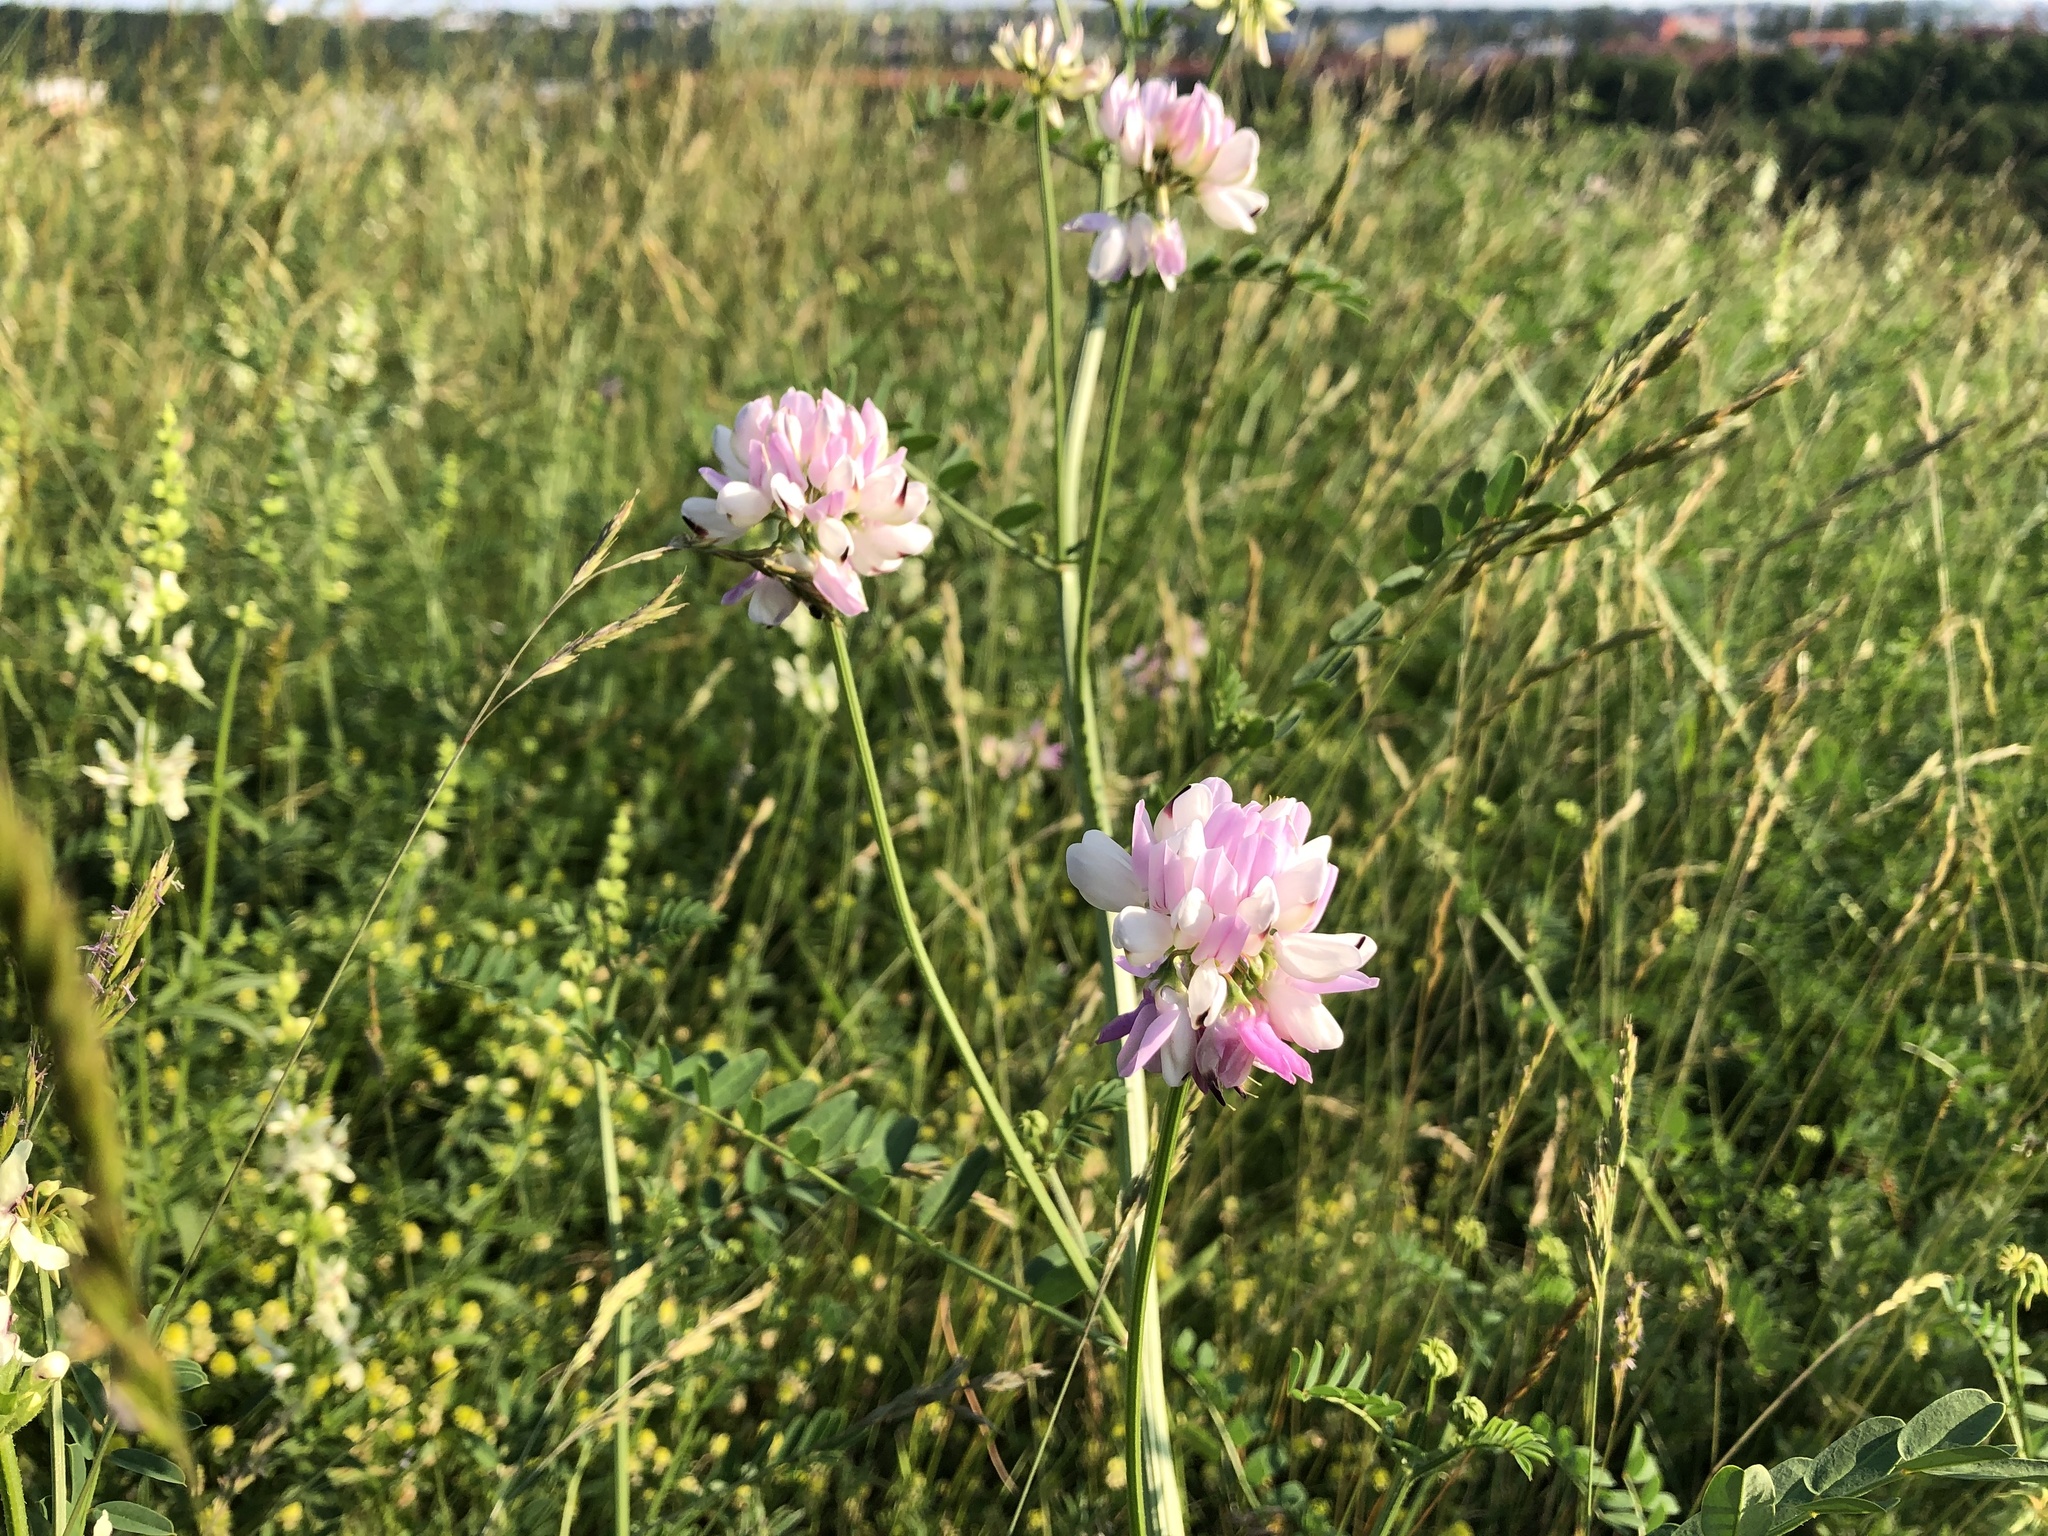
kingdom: Plantae
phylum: Tracheophyta
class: Magnoliopsida
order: Fabales
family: Fabaceae
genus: Coronilla
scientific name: Coronilla varia
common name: Crownvetch
